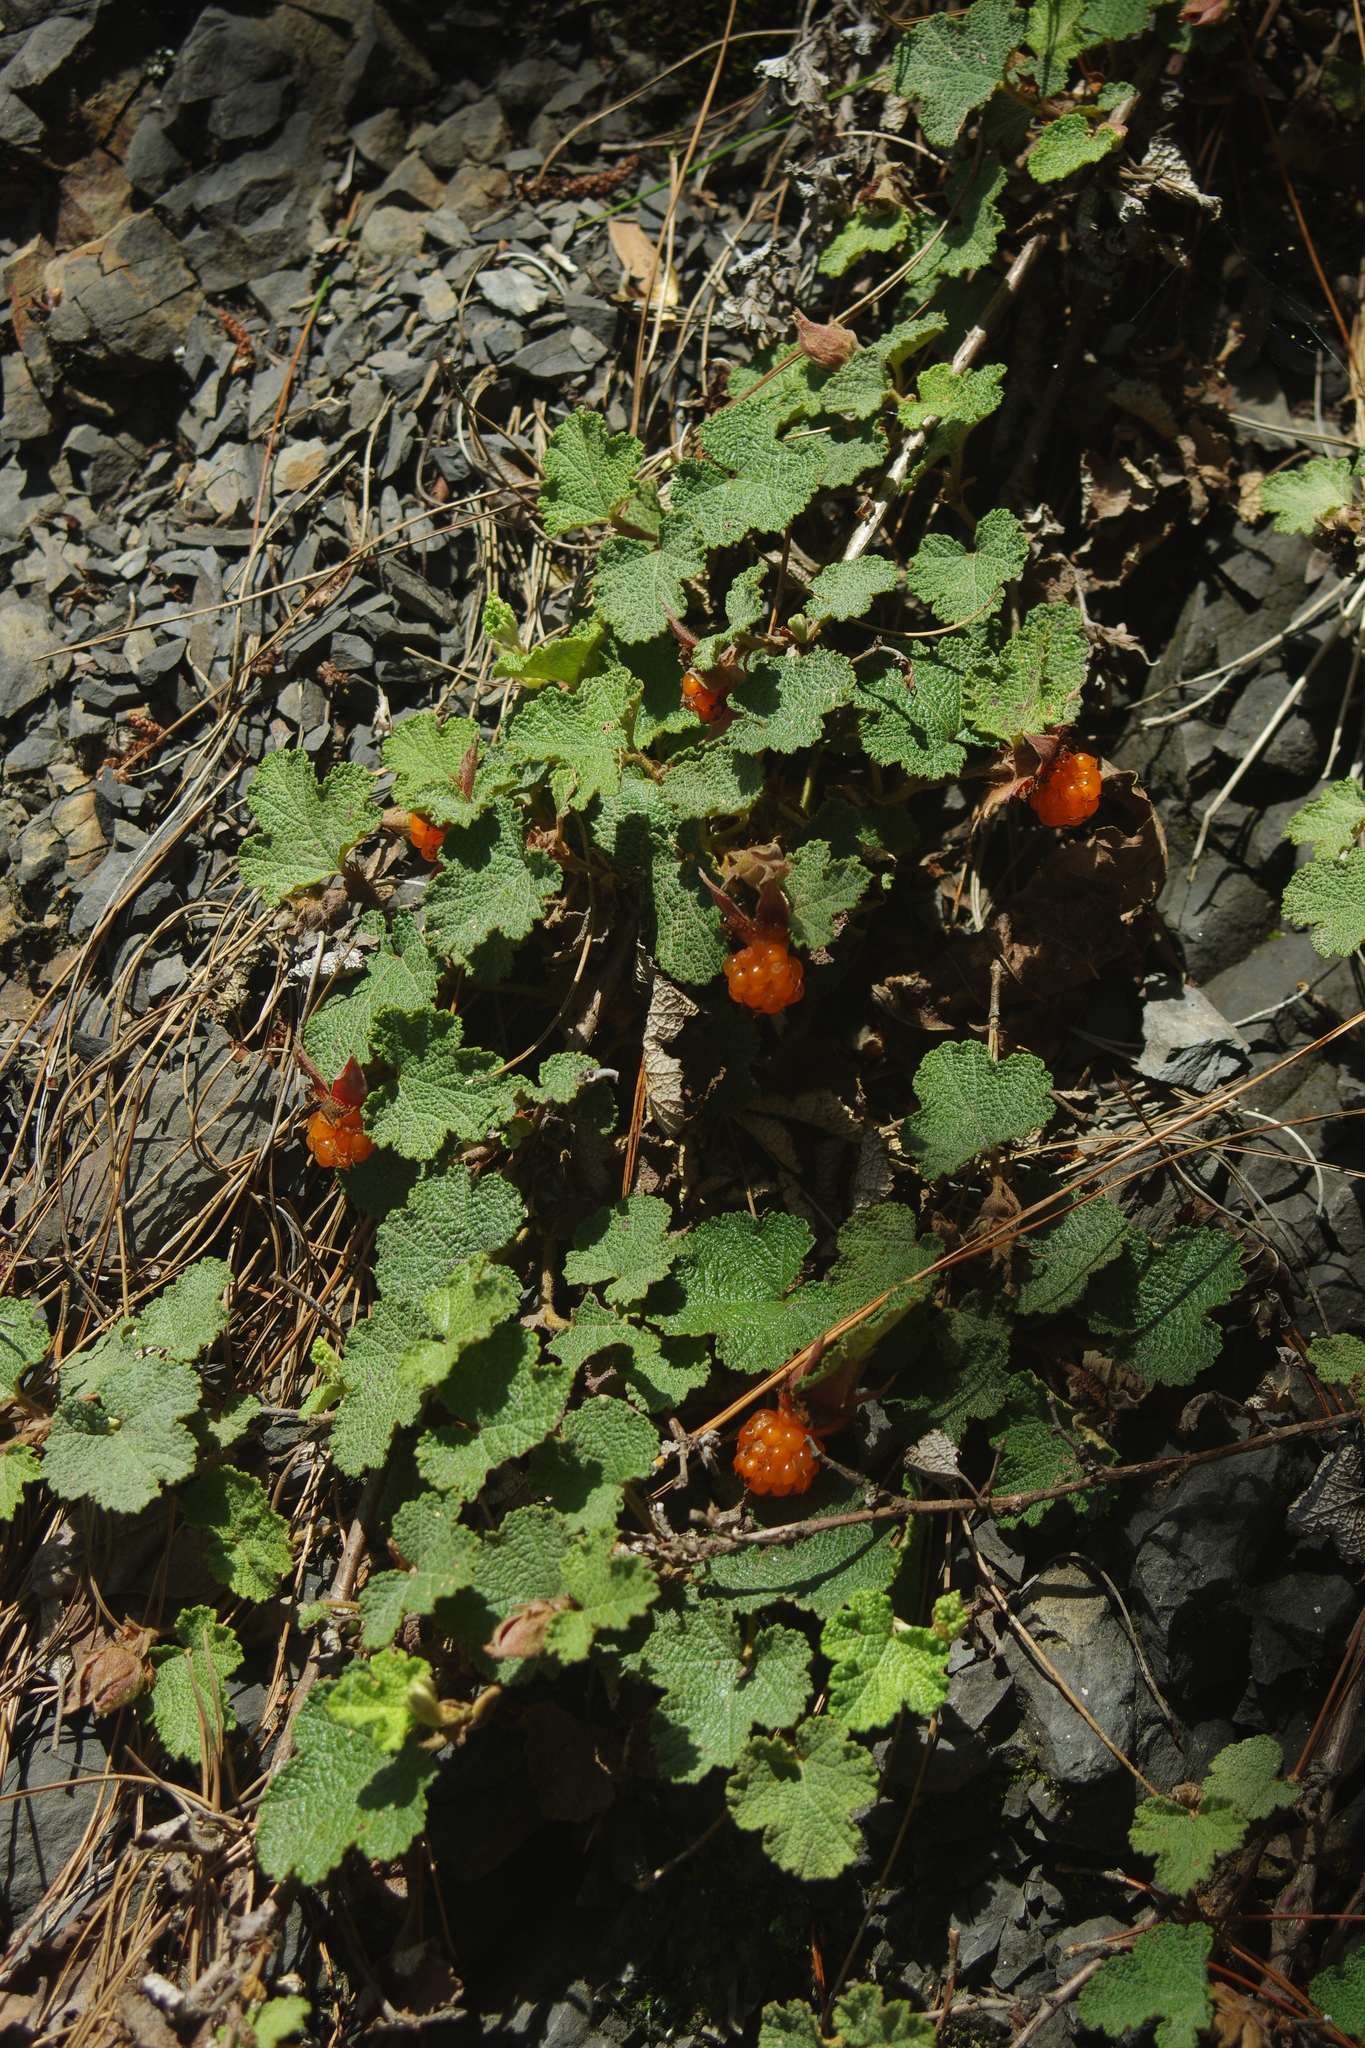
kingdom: Plantae
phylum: Tracheophyta
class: Magnoliopsida
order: Rosales
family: Rosaceae
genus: Rubus
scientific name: Rubus rolfei
